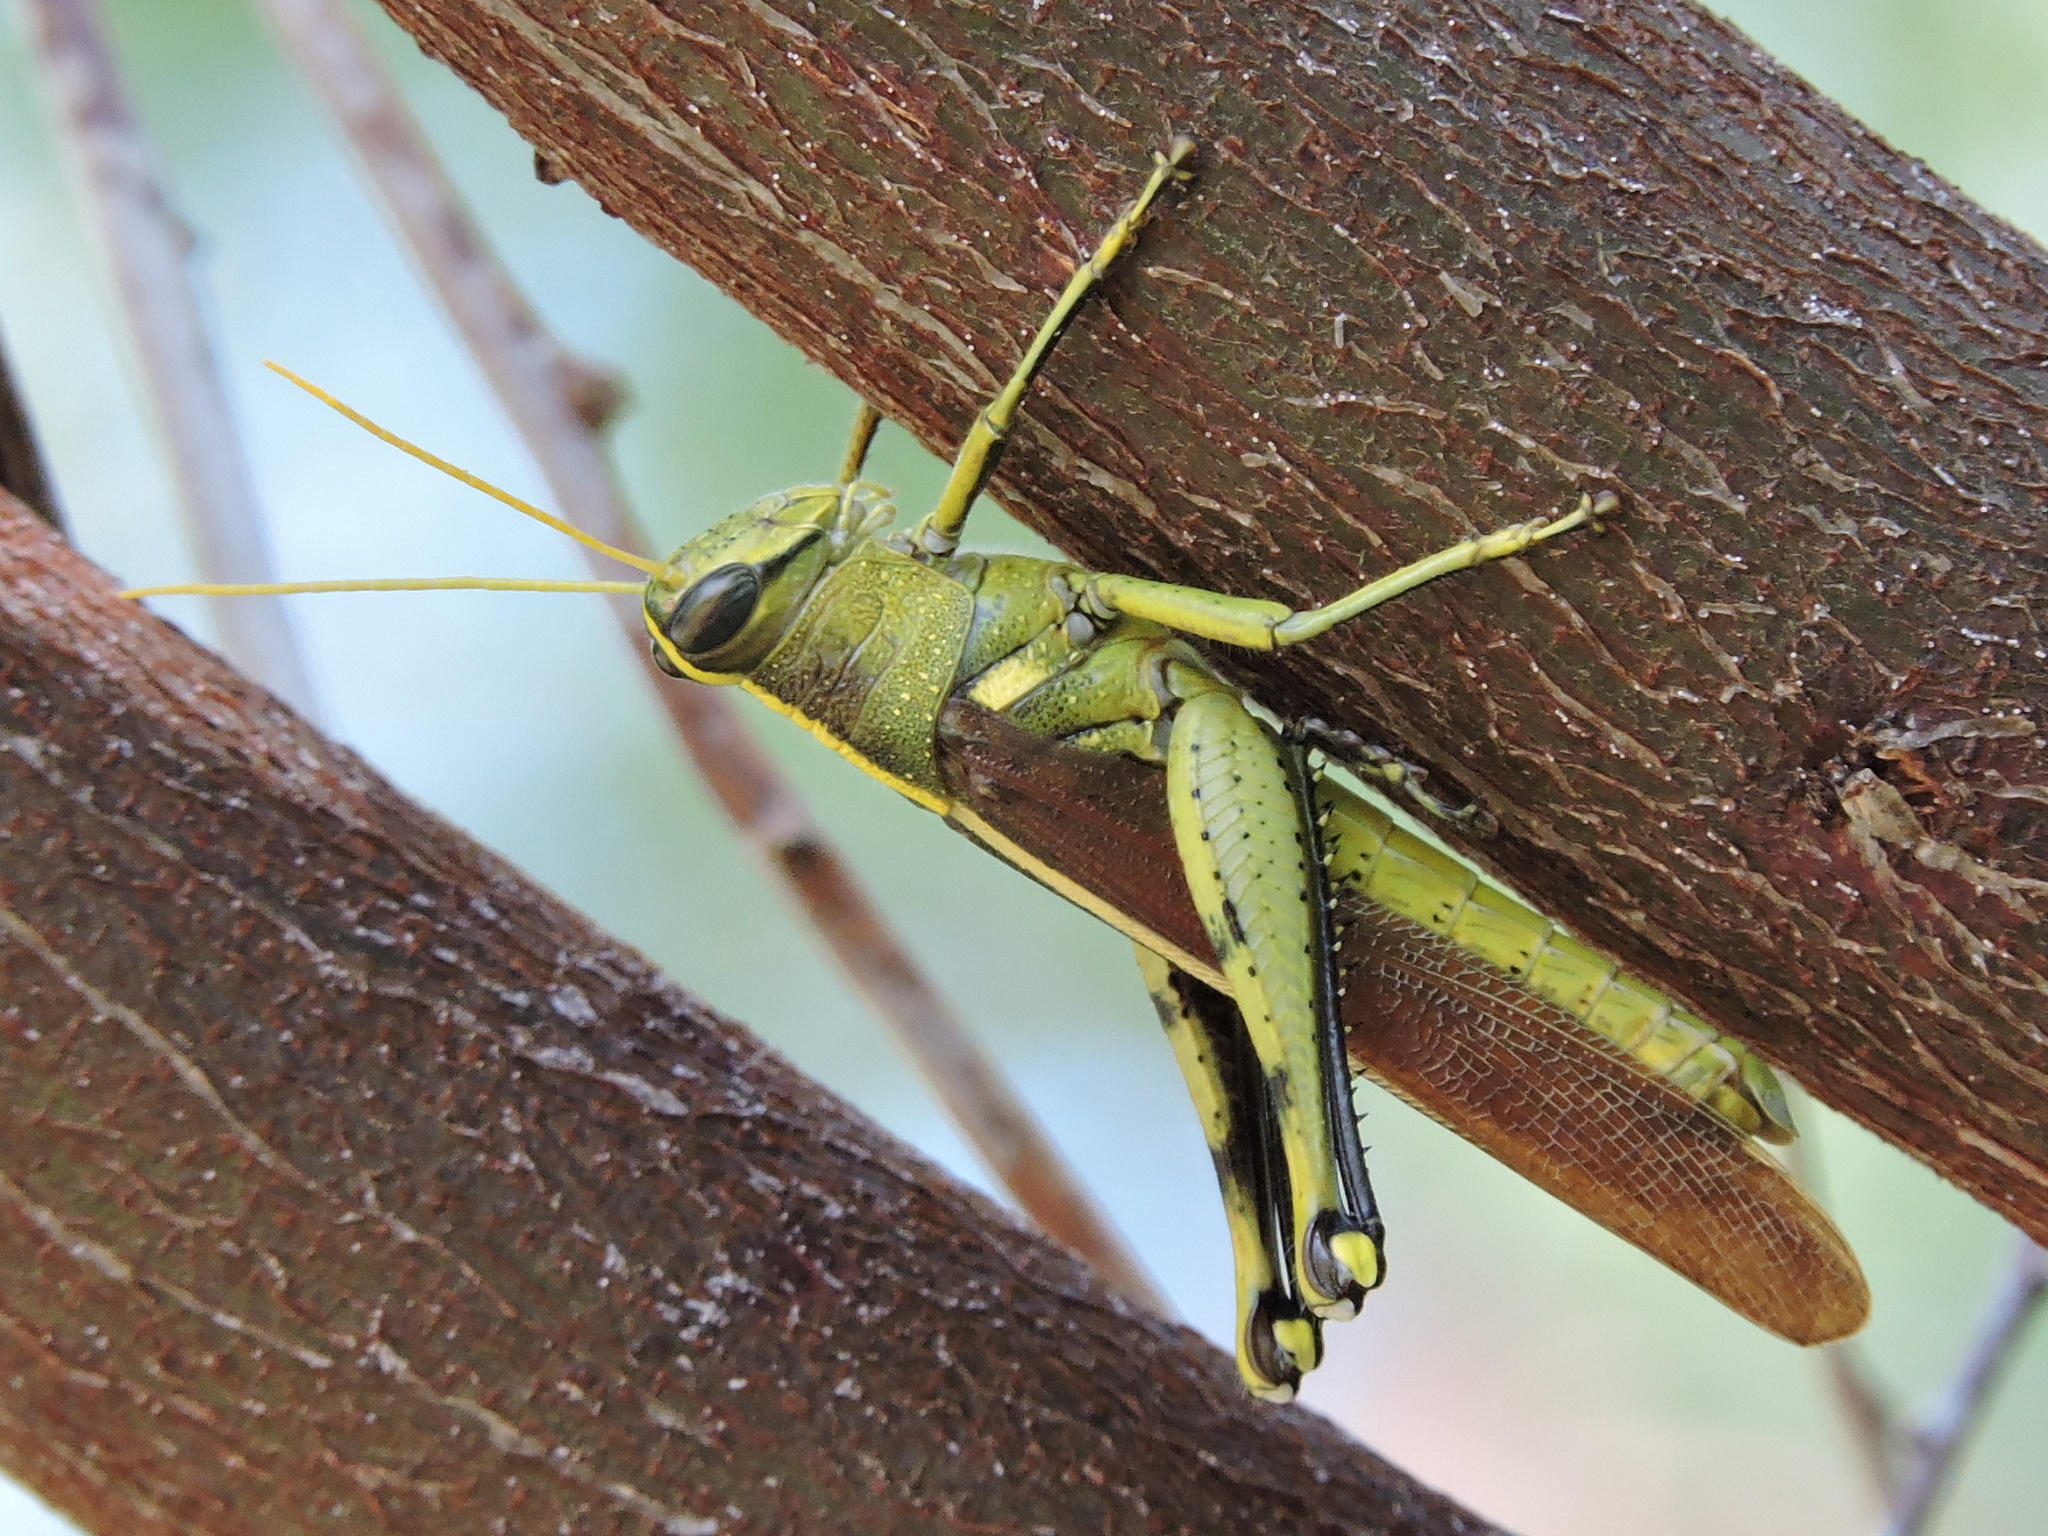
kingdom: Animalia
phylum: Arthropoda
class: Insecta
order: Orthoptera
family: Acrididae
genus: Schistocerca
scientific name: Schistocerca obscura
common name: Obscure bird grasshopper
